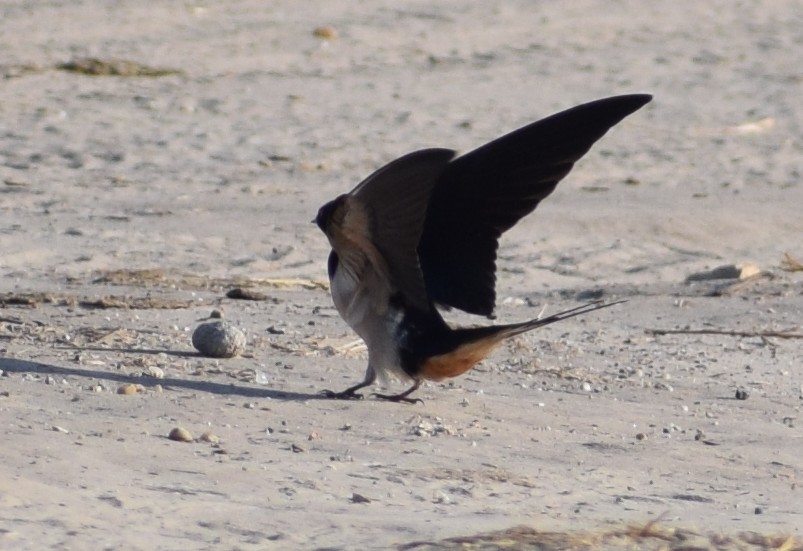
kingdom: Animalia
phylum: Chordata
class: Aves
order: Passeriformes
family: Hirundinidae
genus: Hirundo
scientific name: Hirundo rustica
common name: Barn swallow
